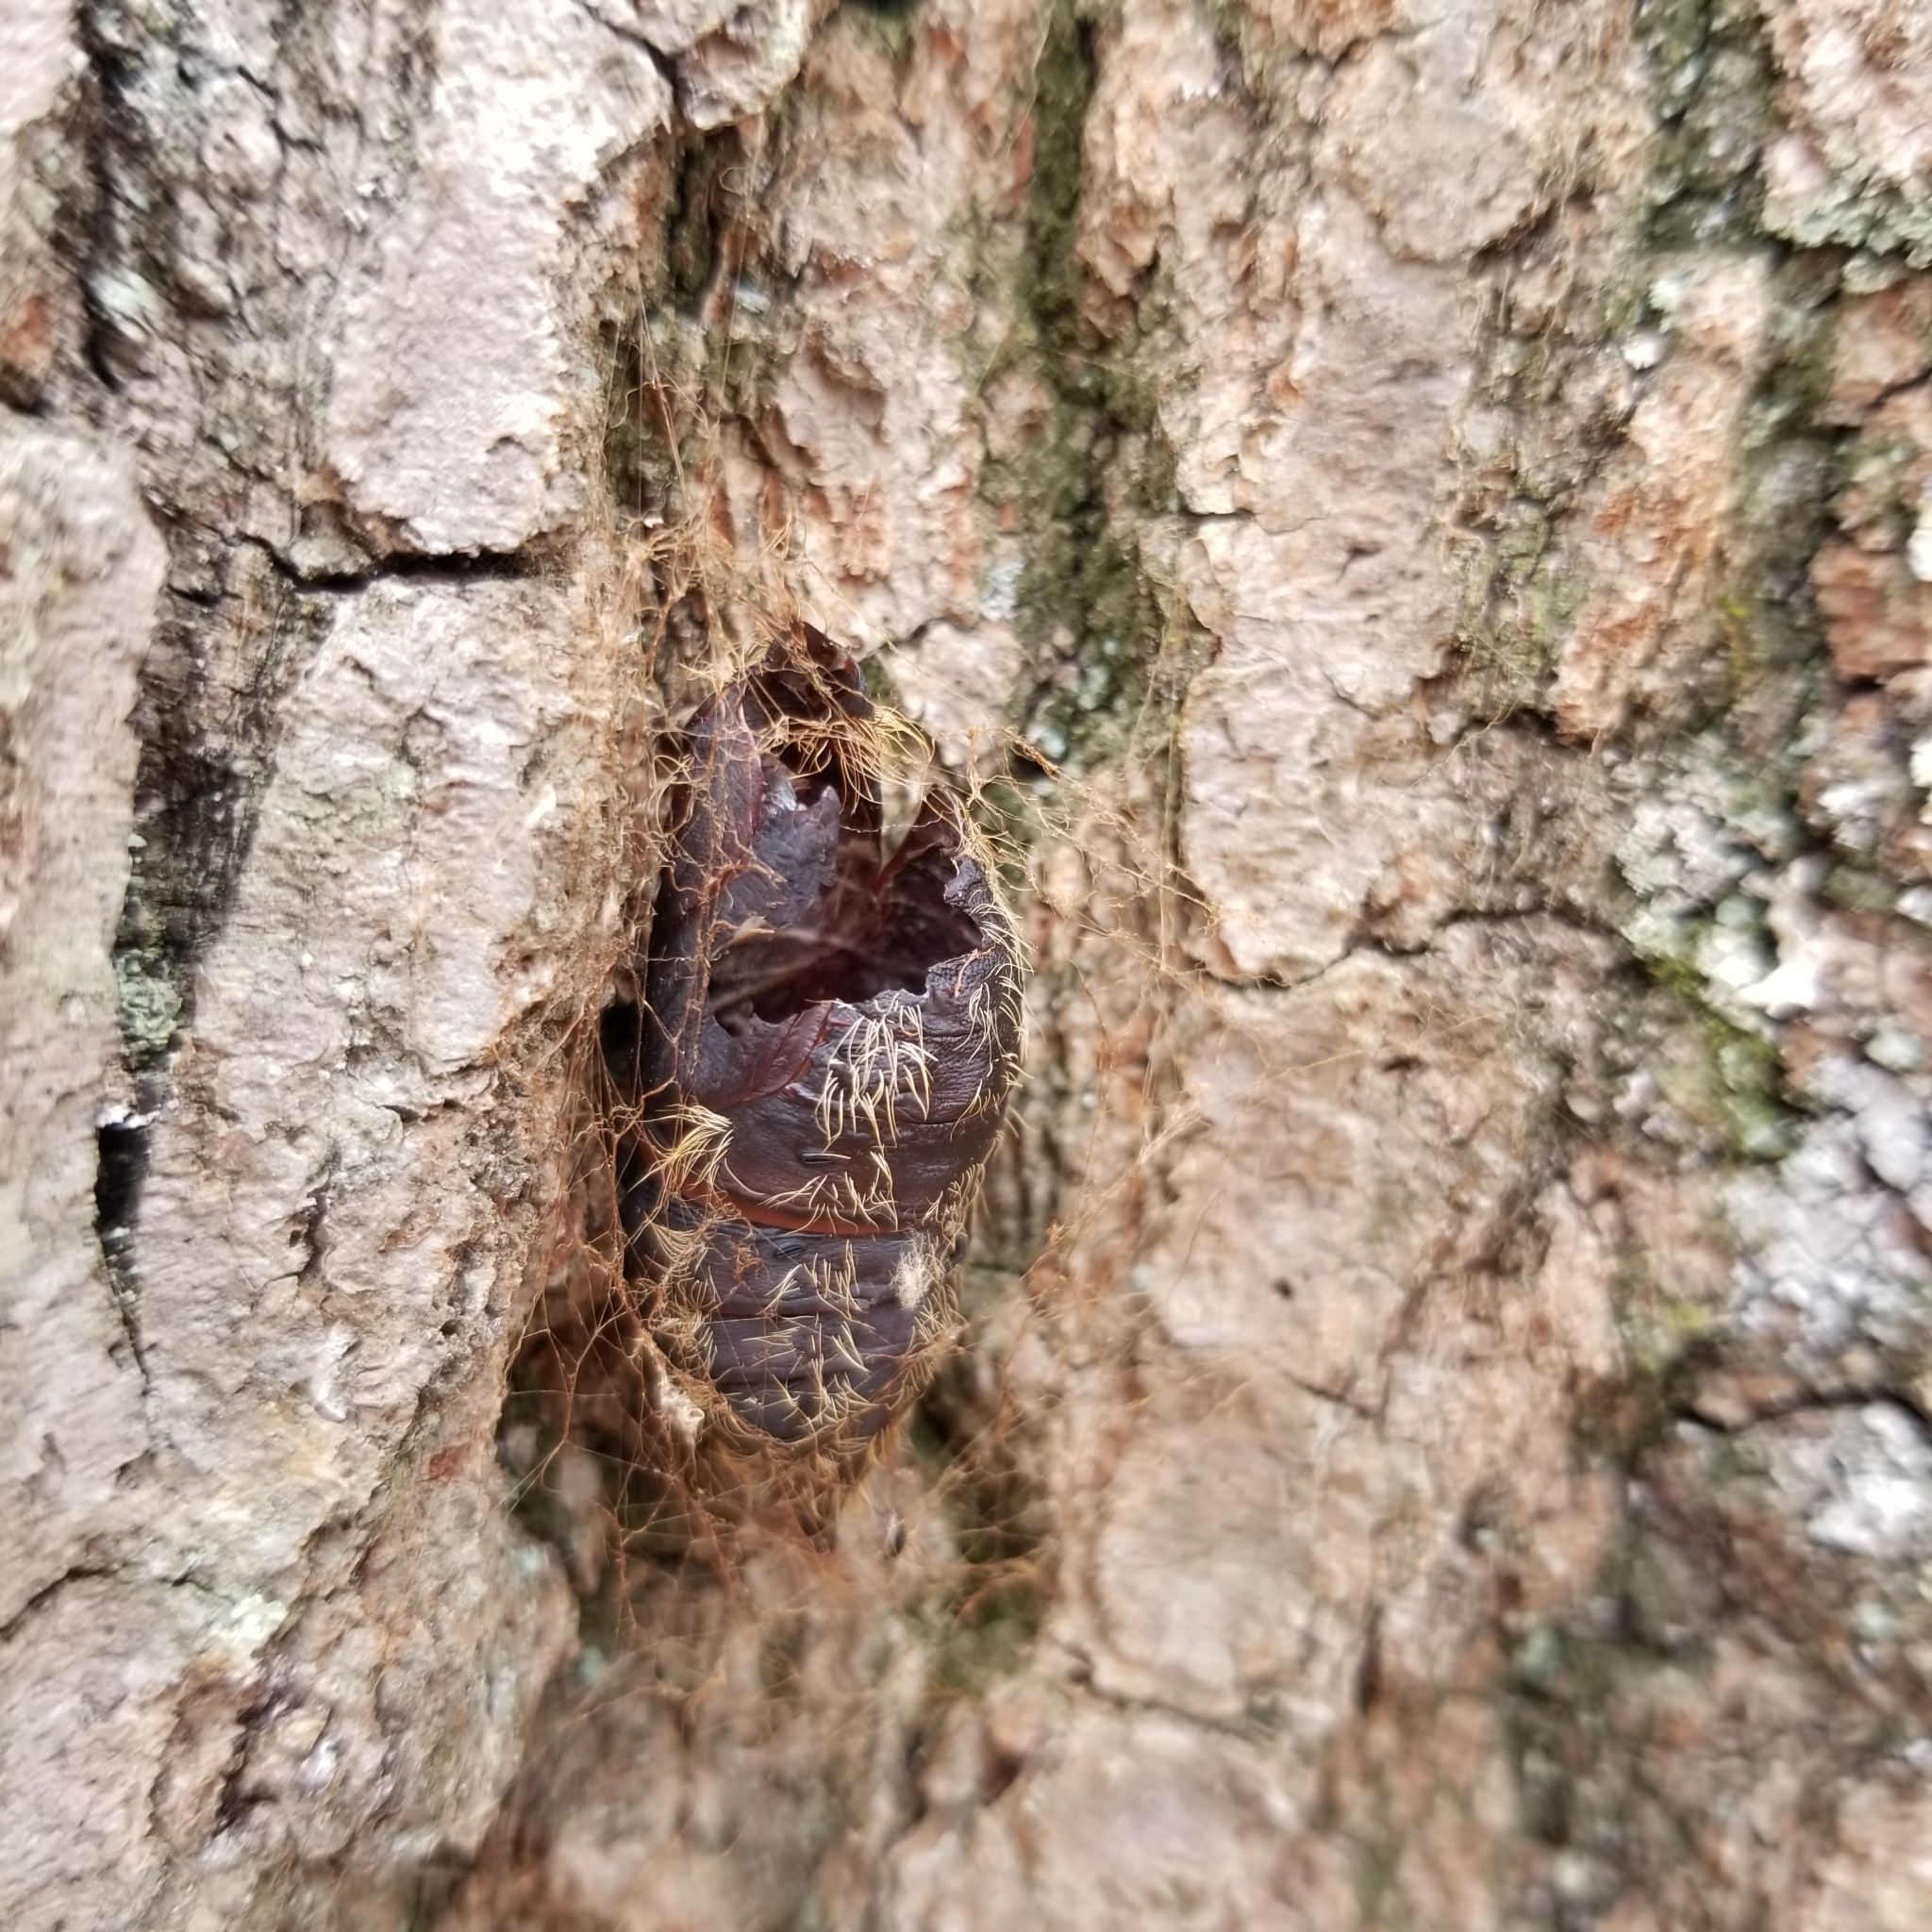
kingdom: Animalia
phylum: Arthropoda
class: Insecta
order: Lepidoptera
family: Erebidae
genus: Lymantria
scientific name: Lymantria dispar
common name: Gypsy moth
